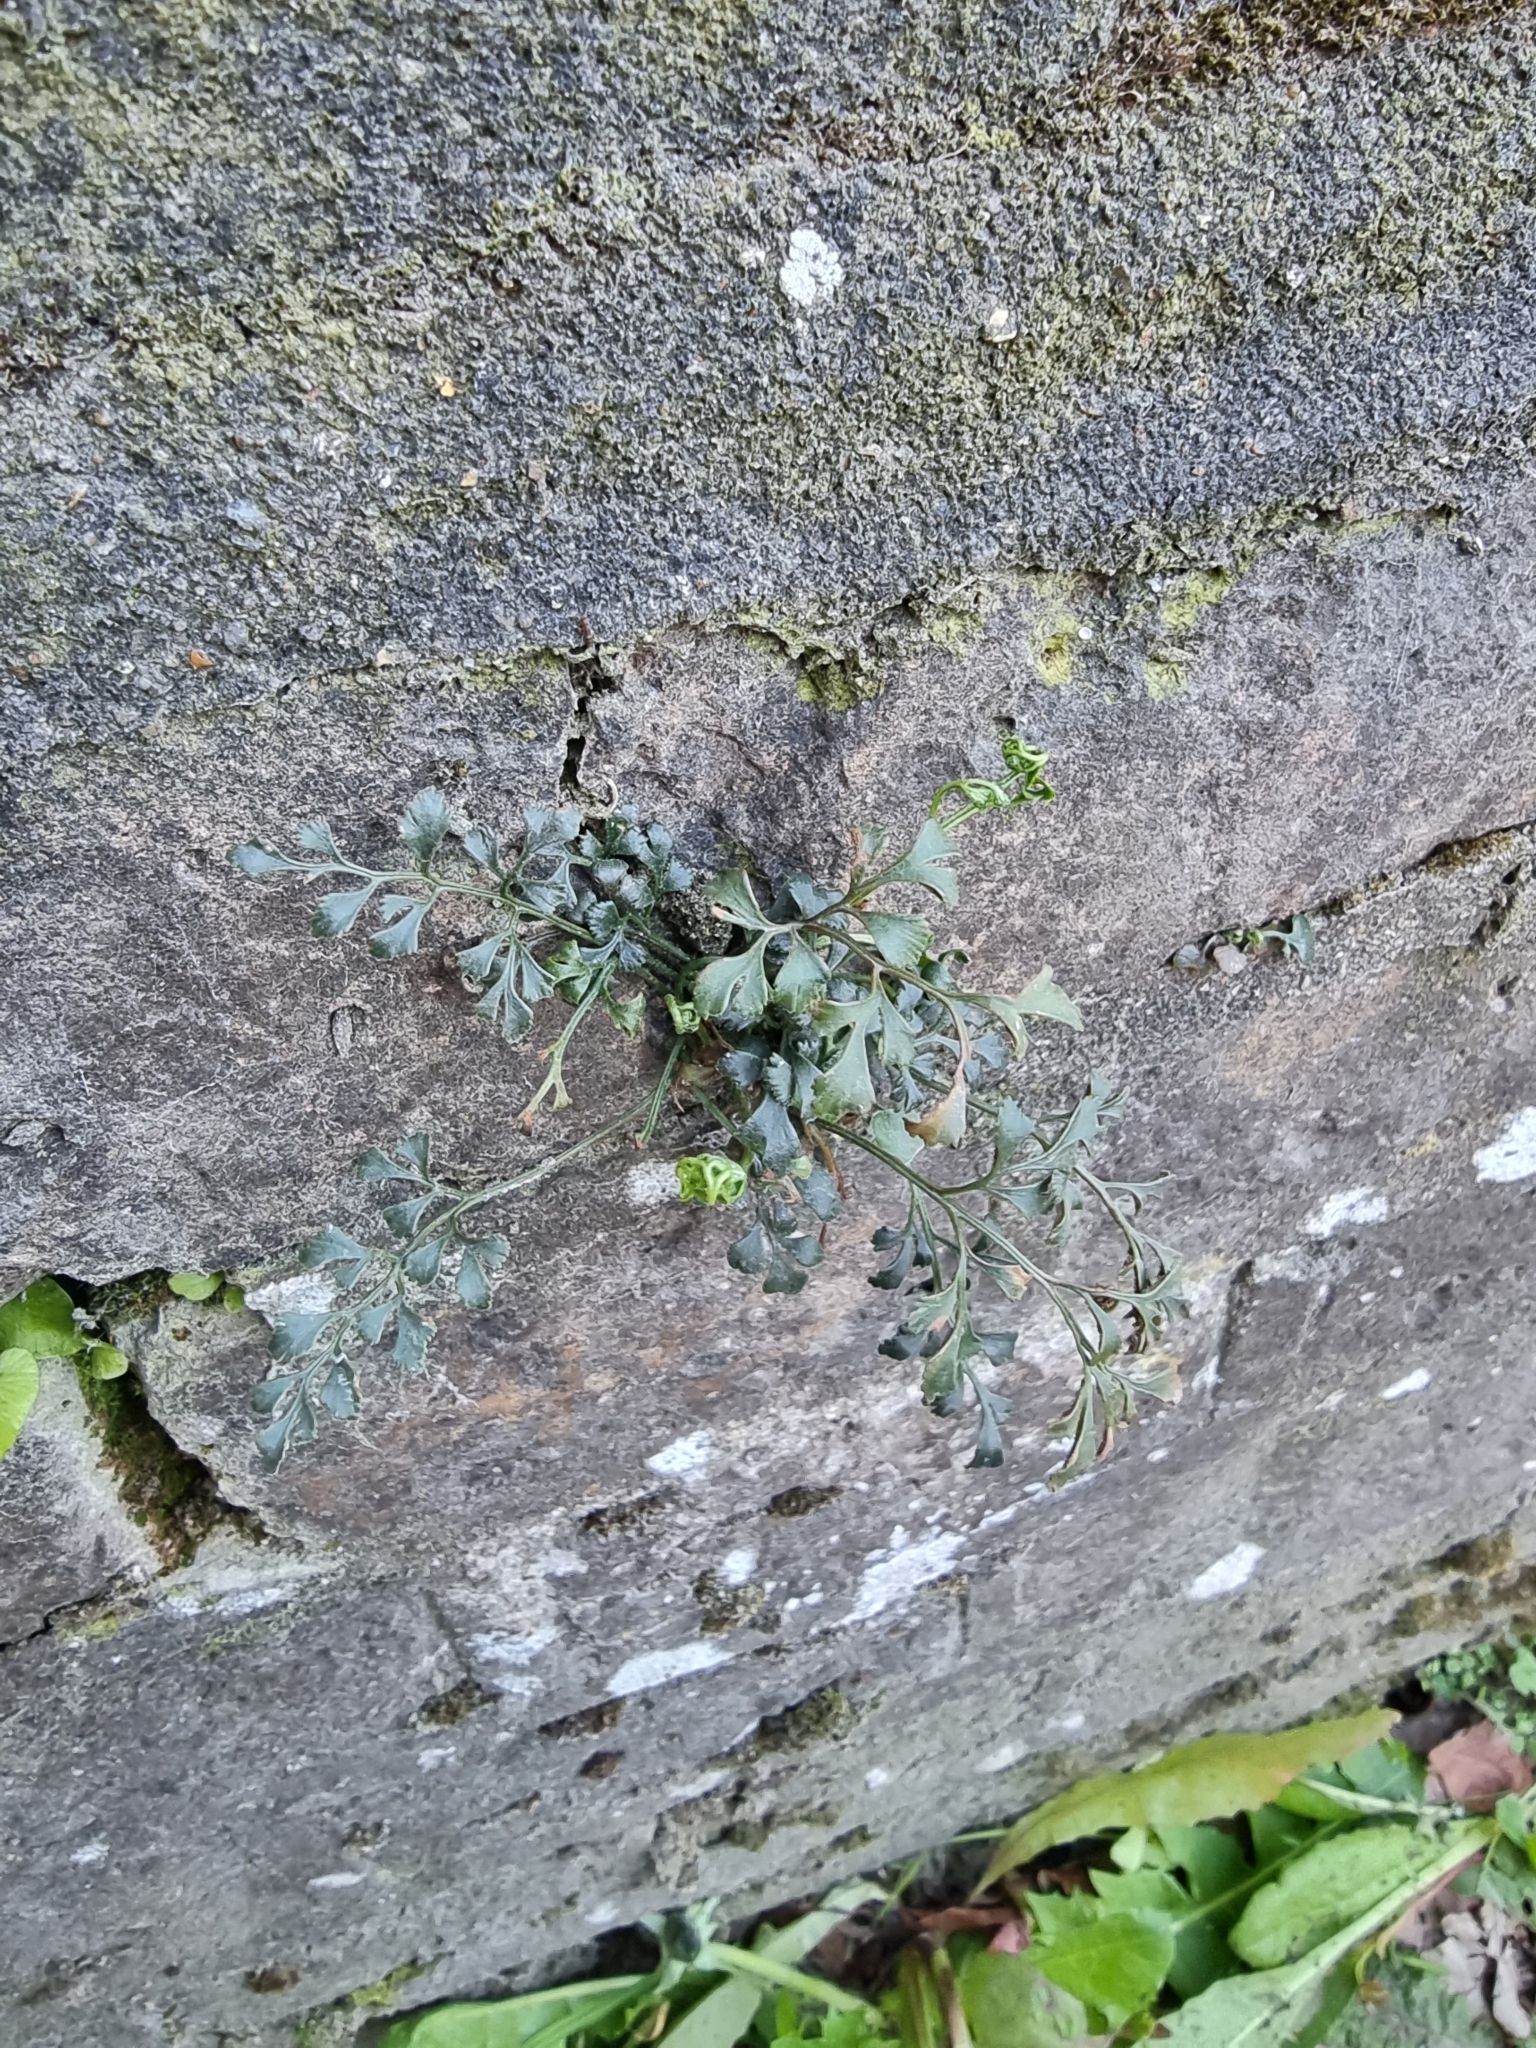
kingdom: Plantae
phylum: Tracheophyta
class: Polypodiopsida
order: Polypodiales
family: Aspleniaceae
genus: Asplenium
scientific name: Asplenium ruta-muraria
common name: Wall-rue
